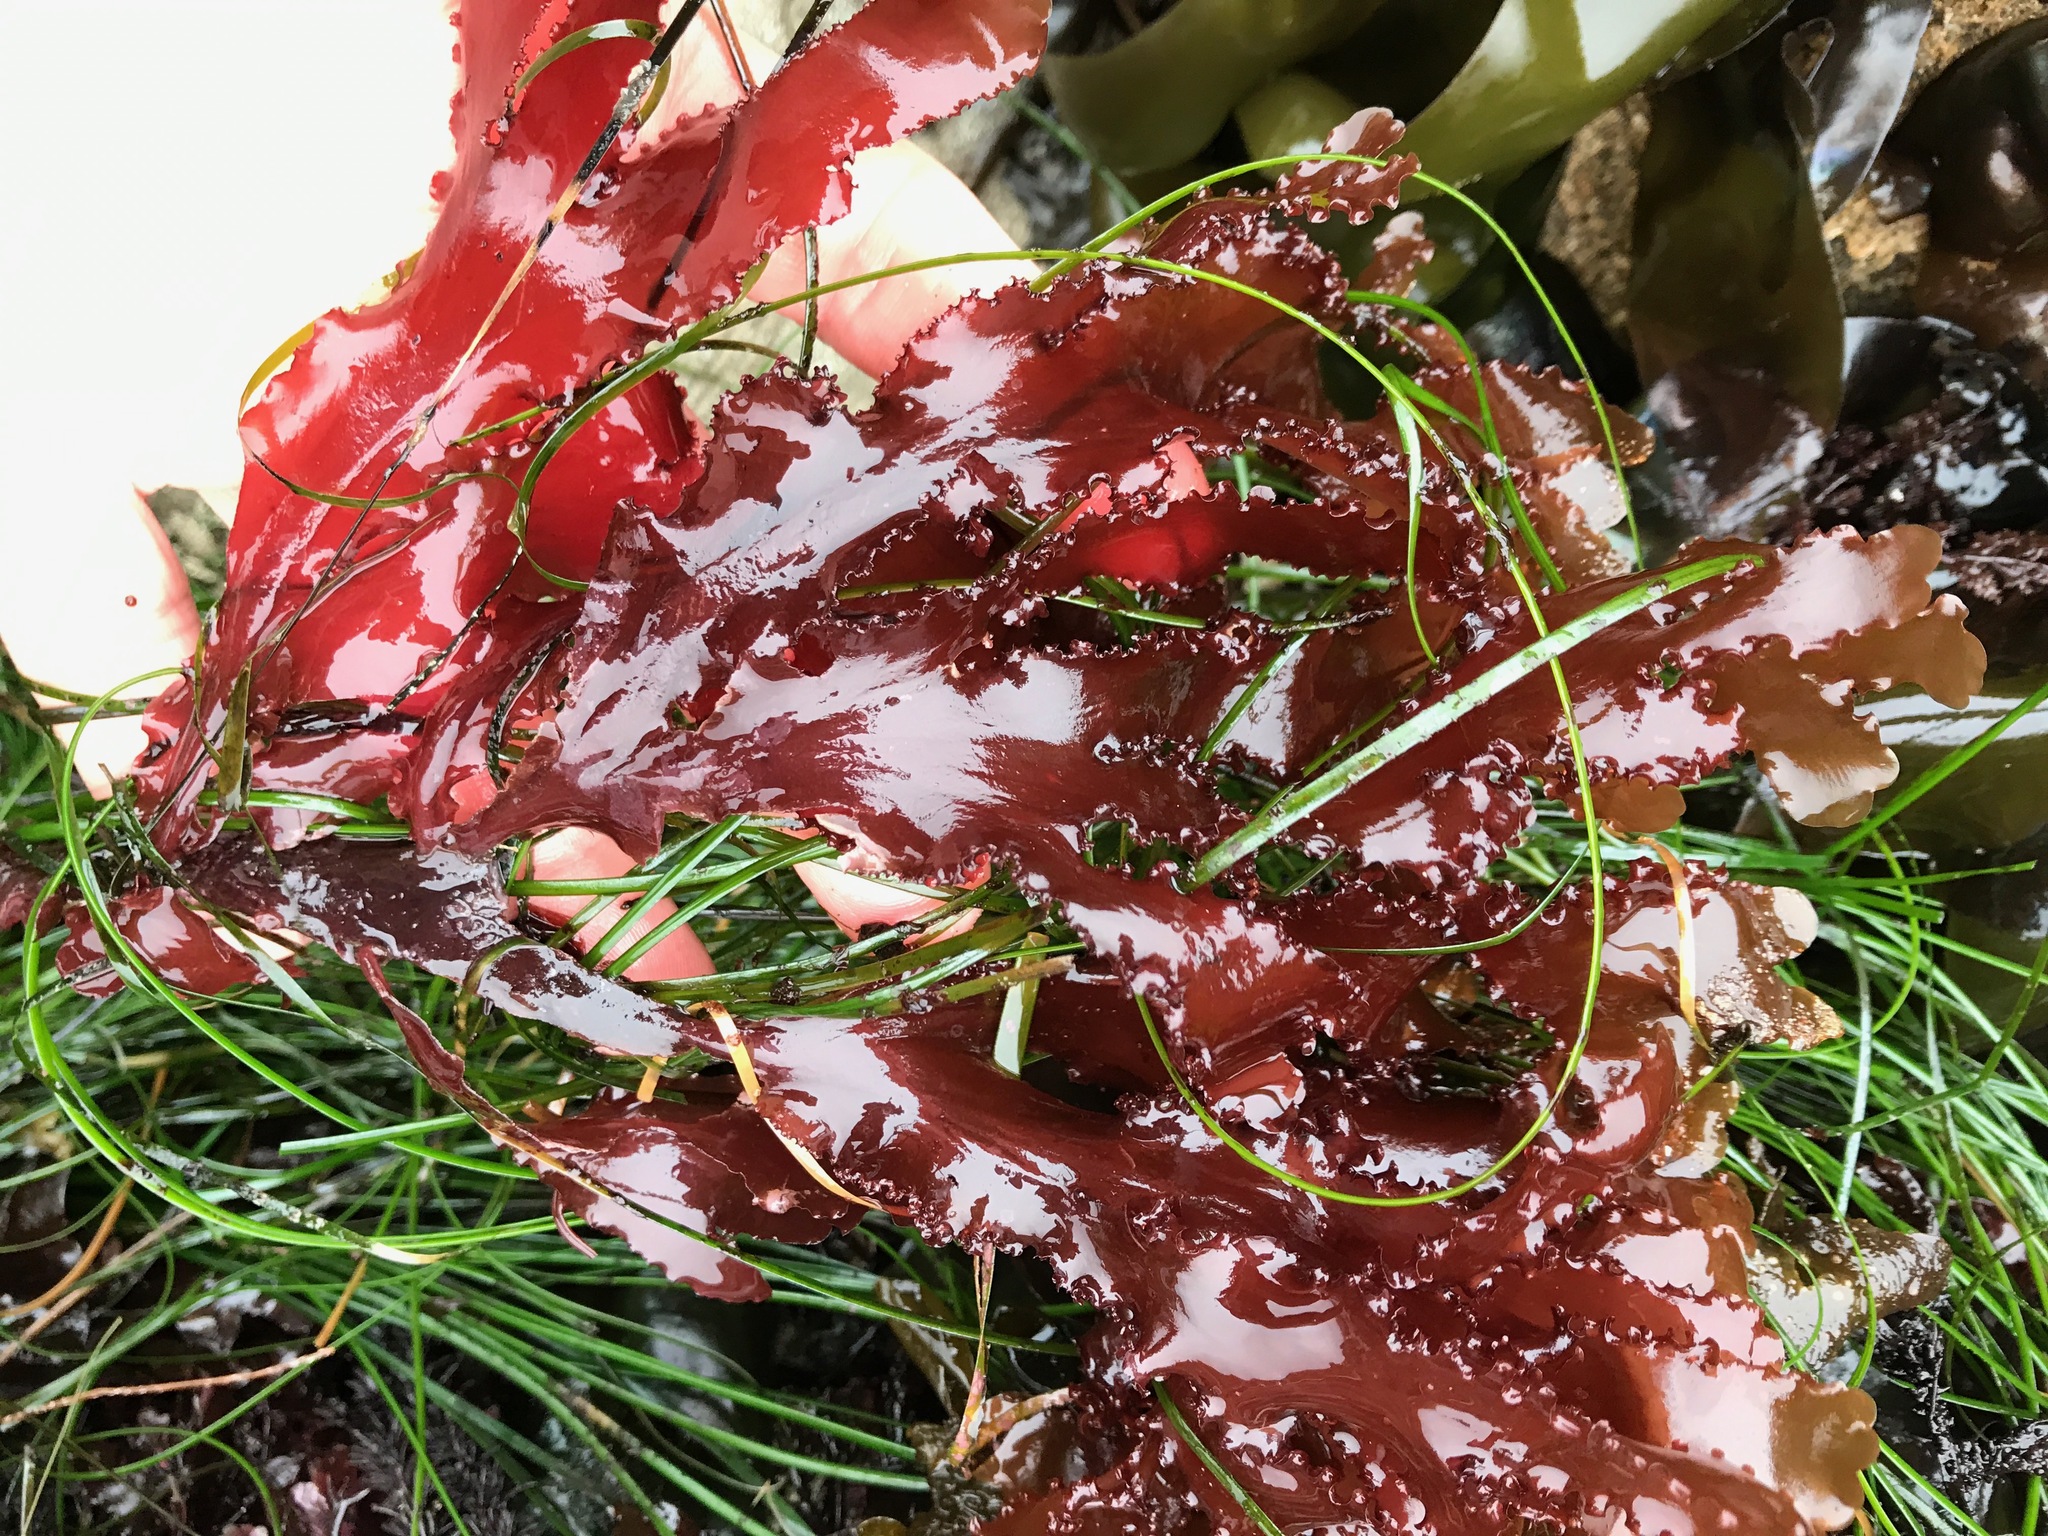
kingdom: Plantae
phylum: Rhodophyta
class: Florideophyceae
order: Ceramiales
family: Delesseriaceae
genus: Cryptopleura
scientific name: Cryptopleura ruprechtiana
